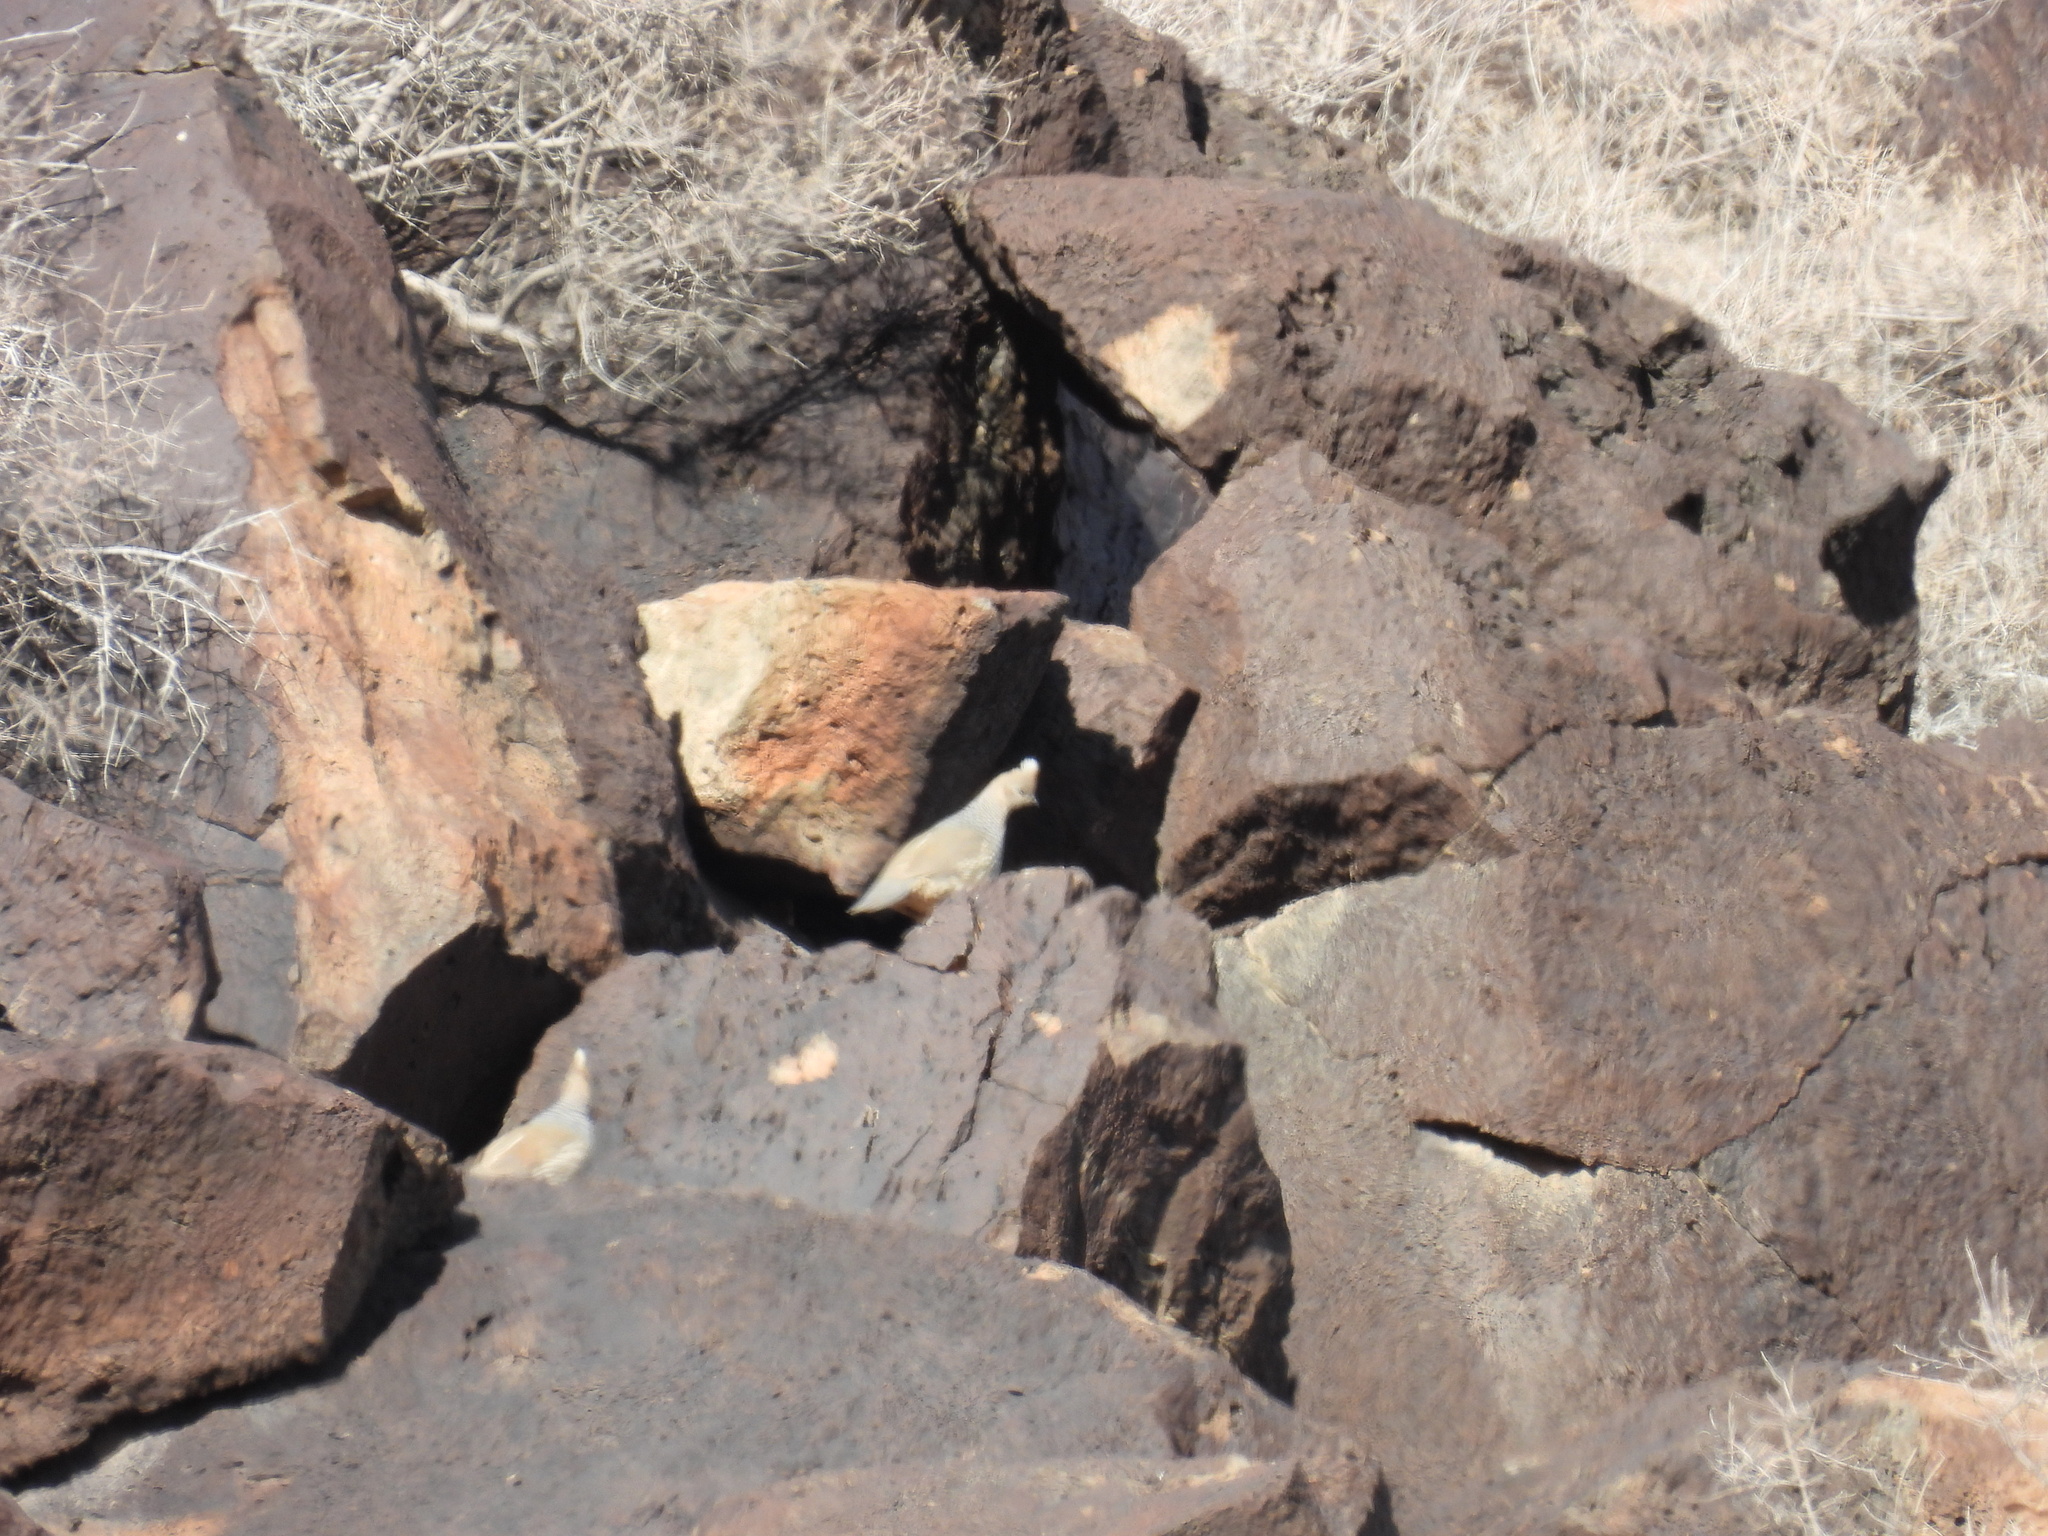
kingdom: Animalia
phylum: Chordata
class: Aves
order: Galliformes
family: Odontophoridae
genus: Callipepla
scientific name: Callipepla squamata
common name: Scaled quail
